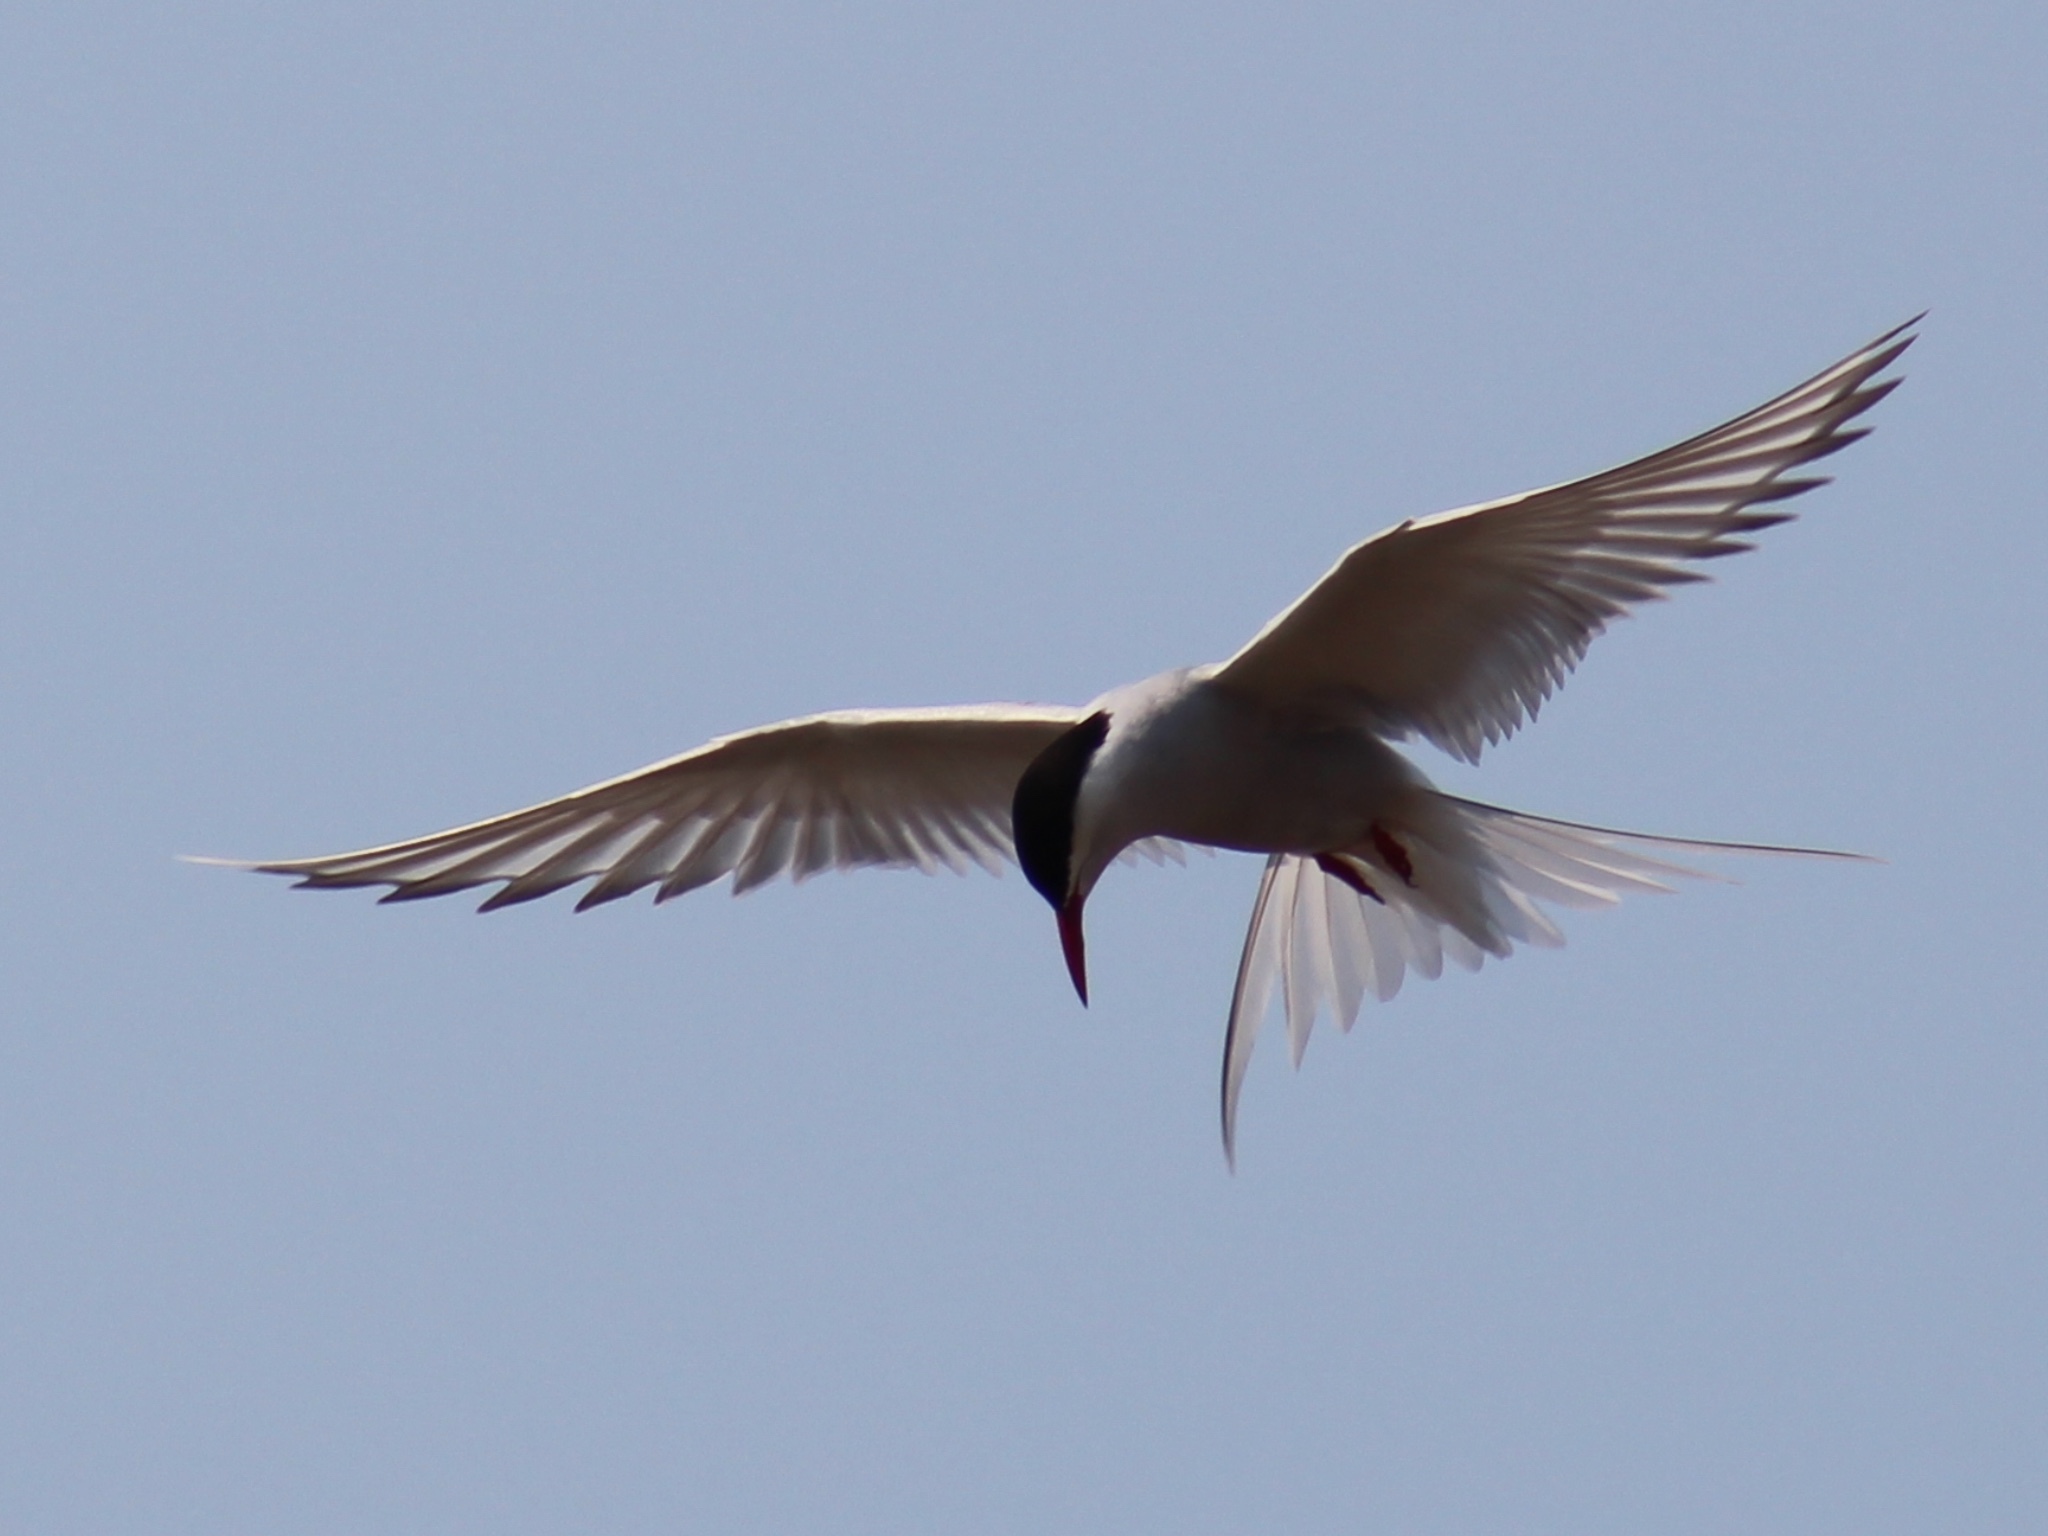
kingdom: Animalia
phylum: Chordata
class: Aves
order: Charadriiformes
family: Laridae
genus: Sterna
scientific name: Sterna paradisaea
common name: Arctic tern
